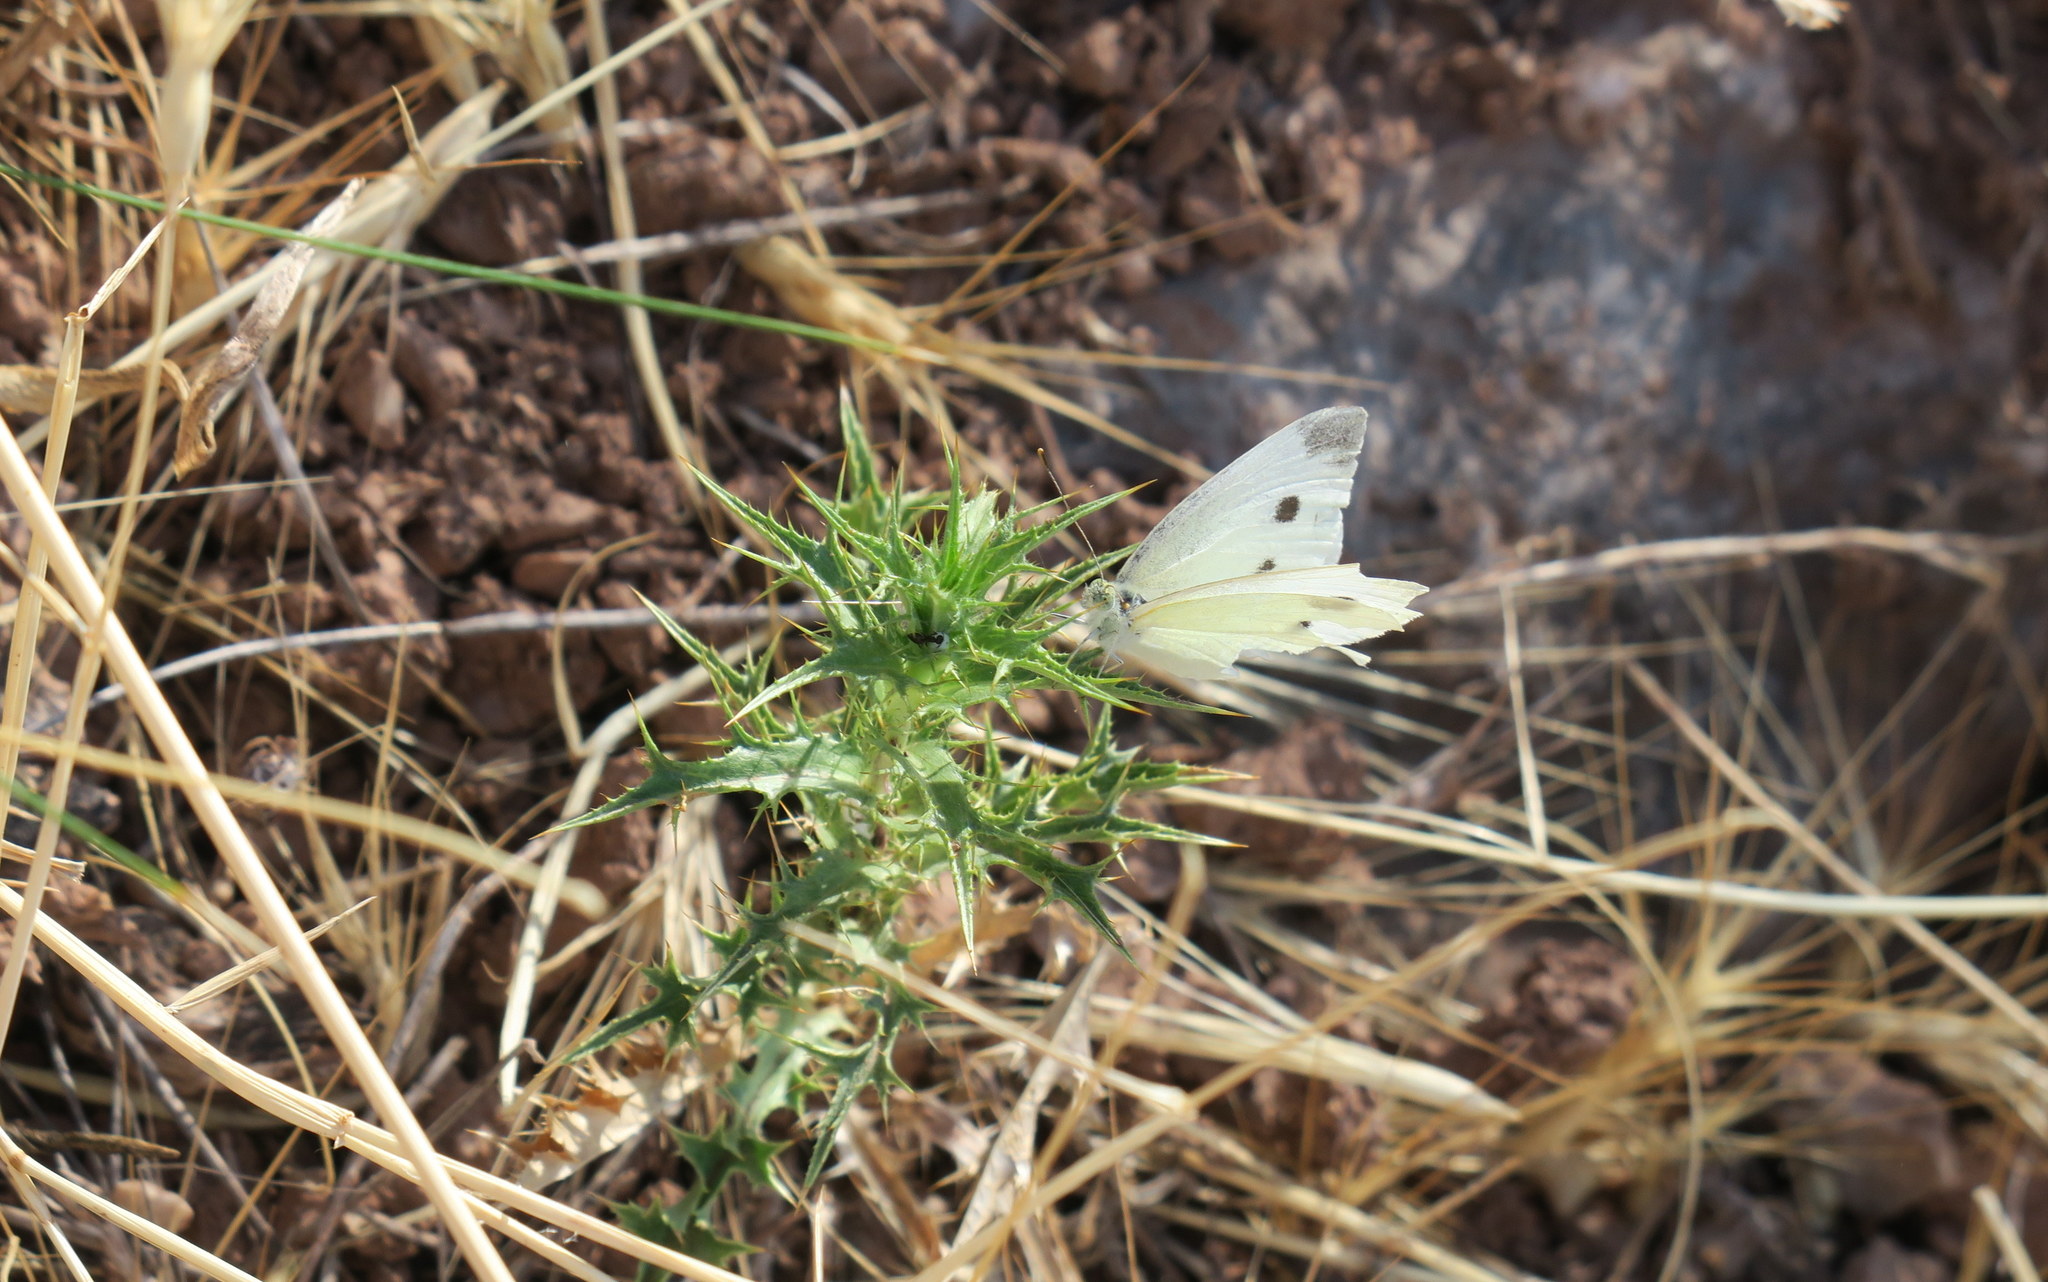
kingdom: Animalia
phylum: Arthropoda
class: Insecta
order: Lepidoptera
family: Pieridae
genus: Pieris
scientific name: Pieris rapae
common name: Small white
